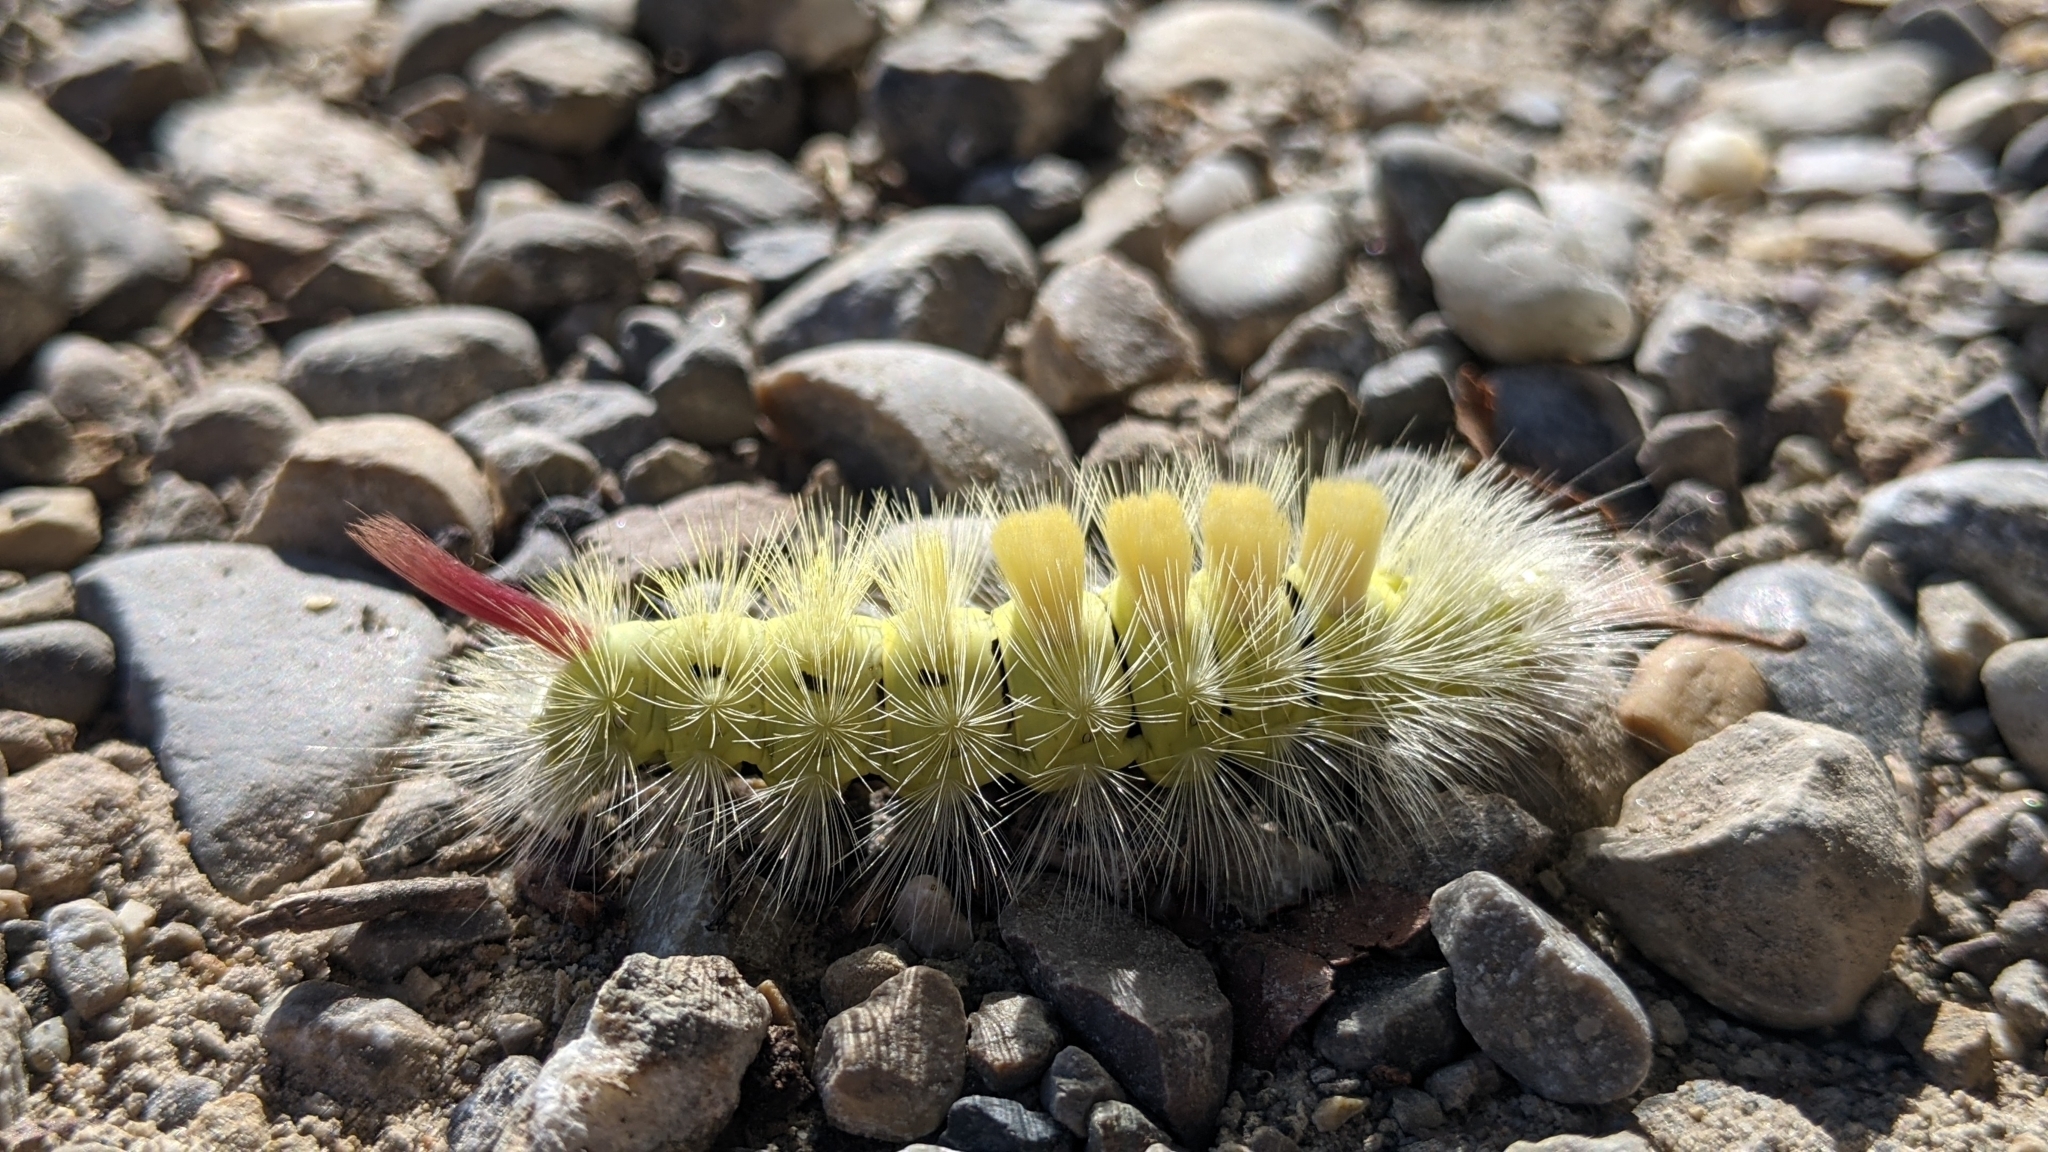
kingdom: Animalia
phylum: Arthropoda
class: Insecta
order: Lepidoptera
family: Erebidae
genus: Calliteara
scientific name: Calliteara pudibunda
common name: Pale tussock
